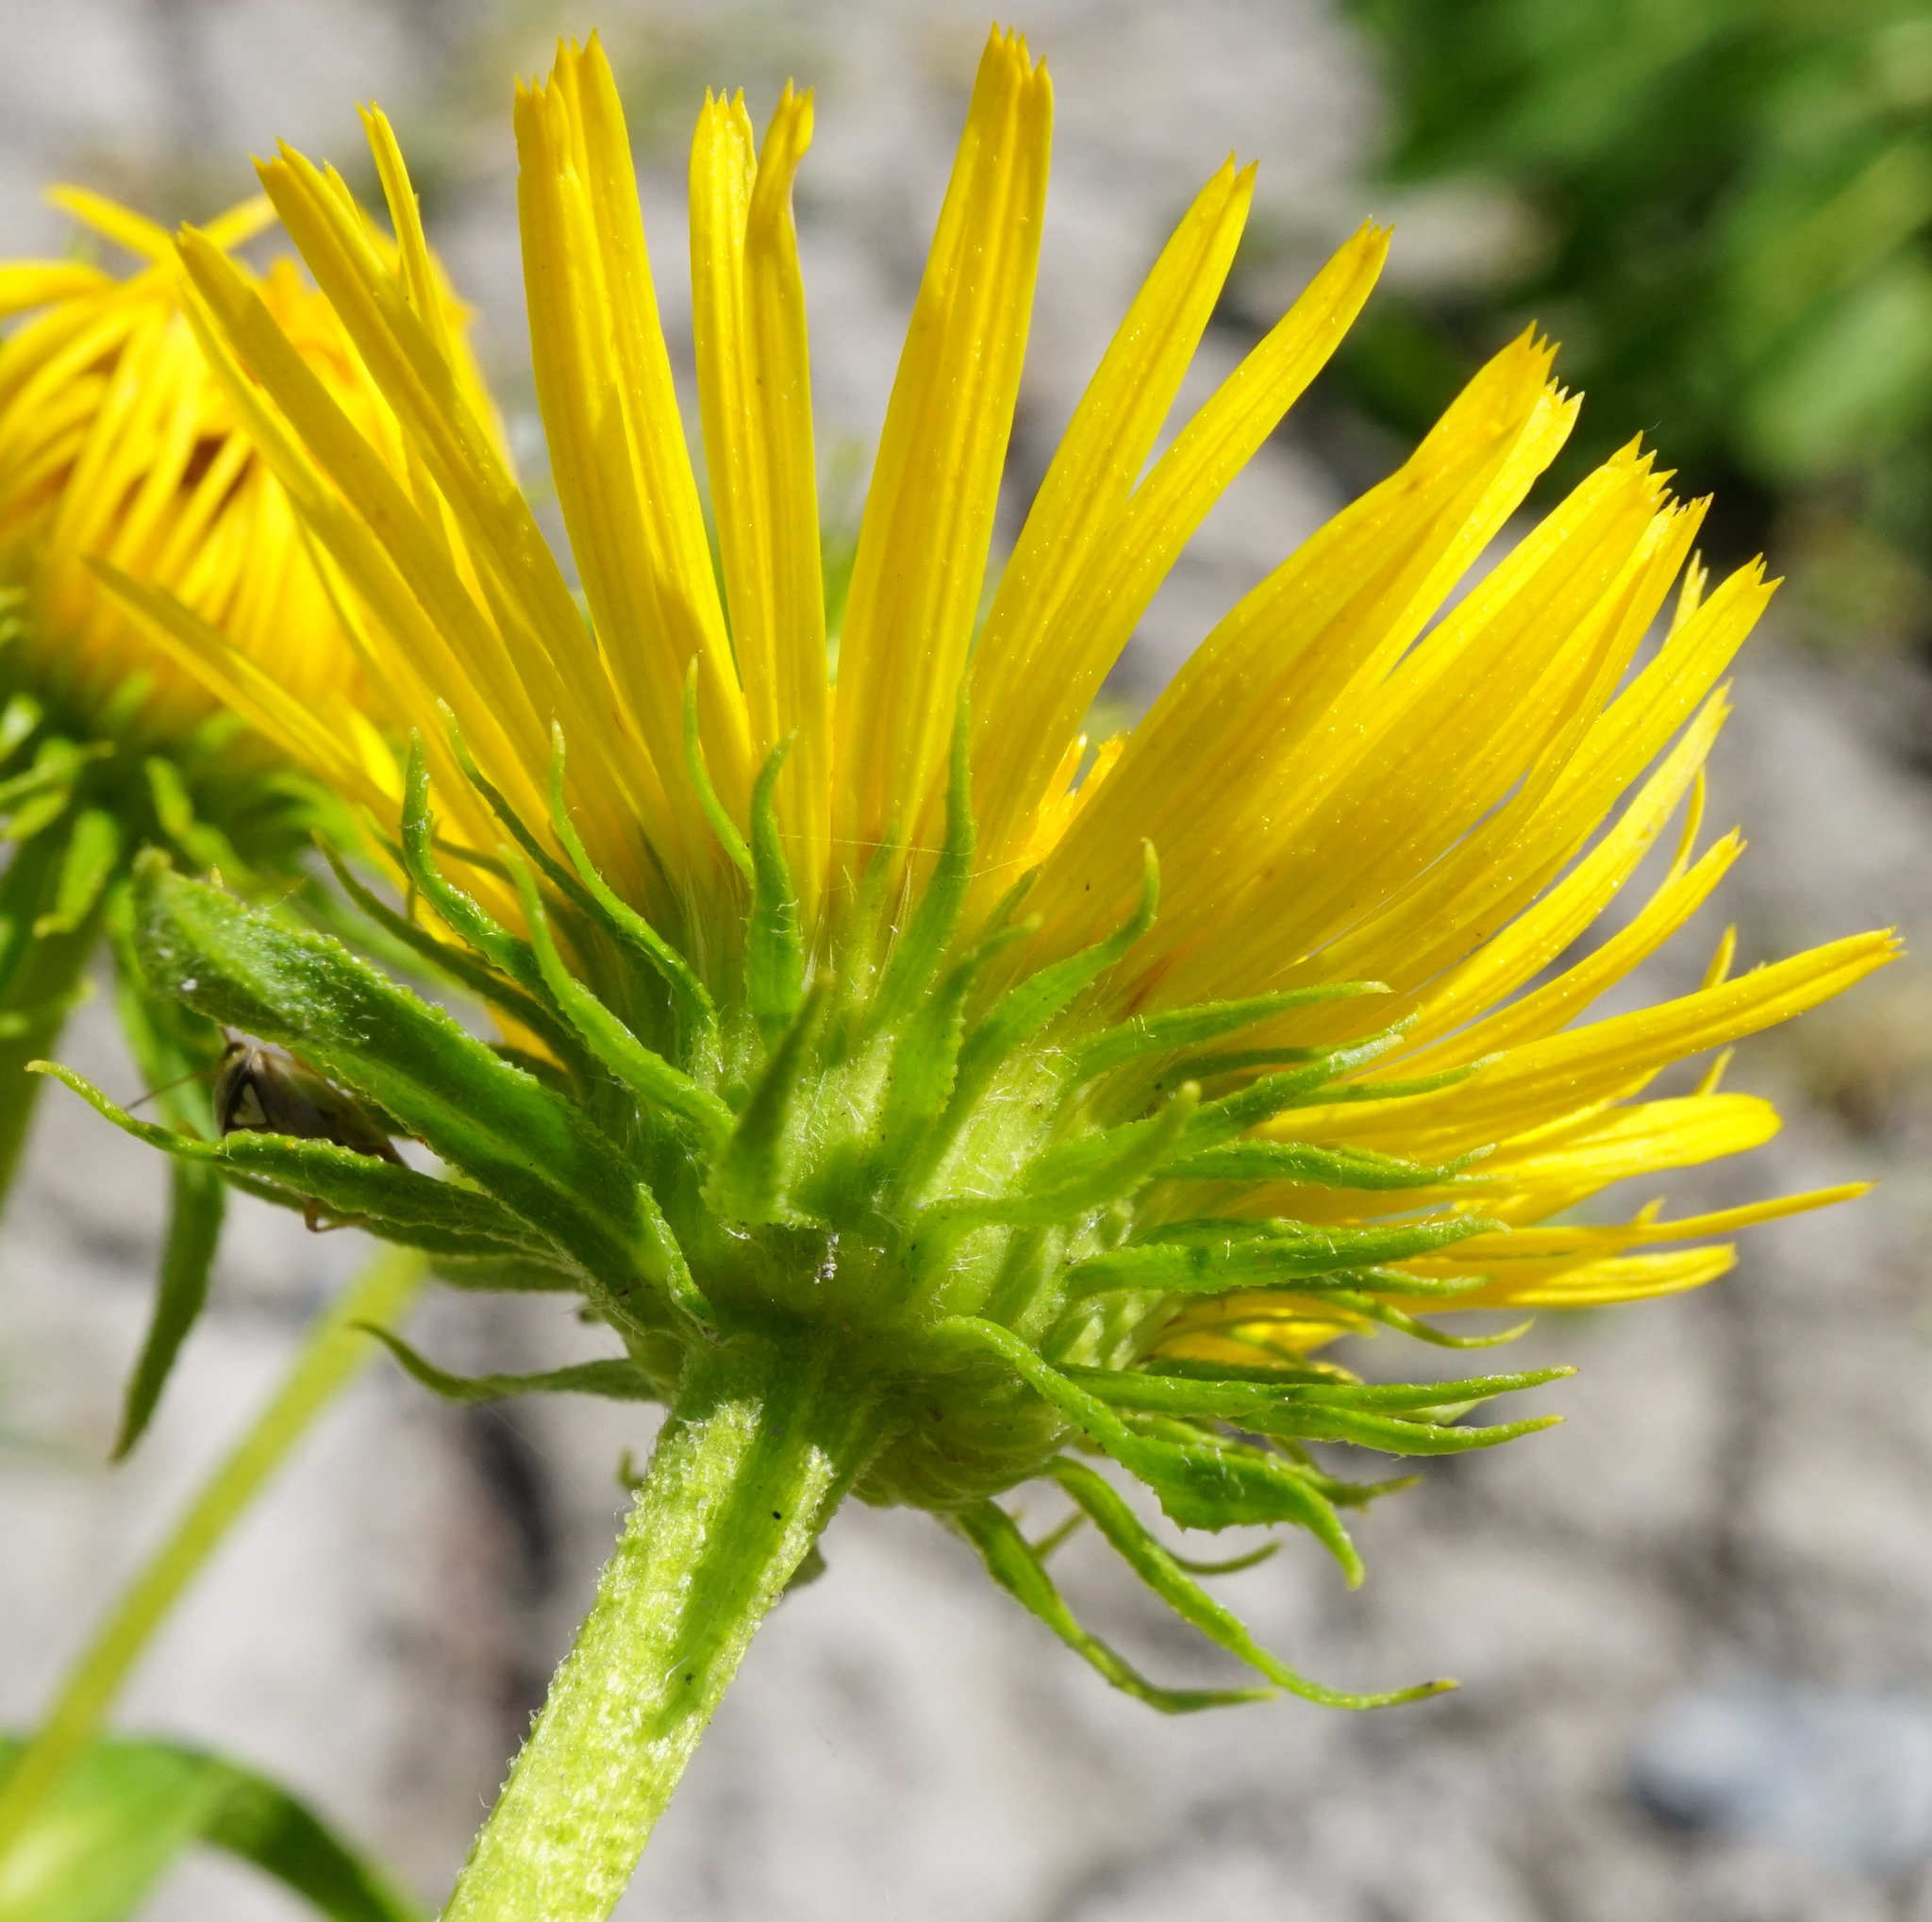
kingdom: Plantae
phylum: Tracheophyta
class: Magnoliopsida
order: Asterales
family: Asteraceae
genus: Pentanema
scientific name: Pentanema britannicum
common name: British elecampane
